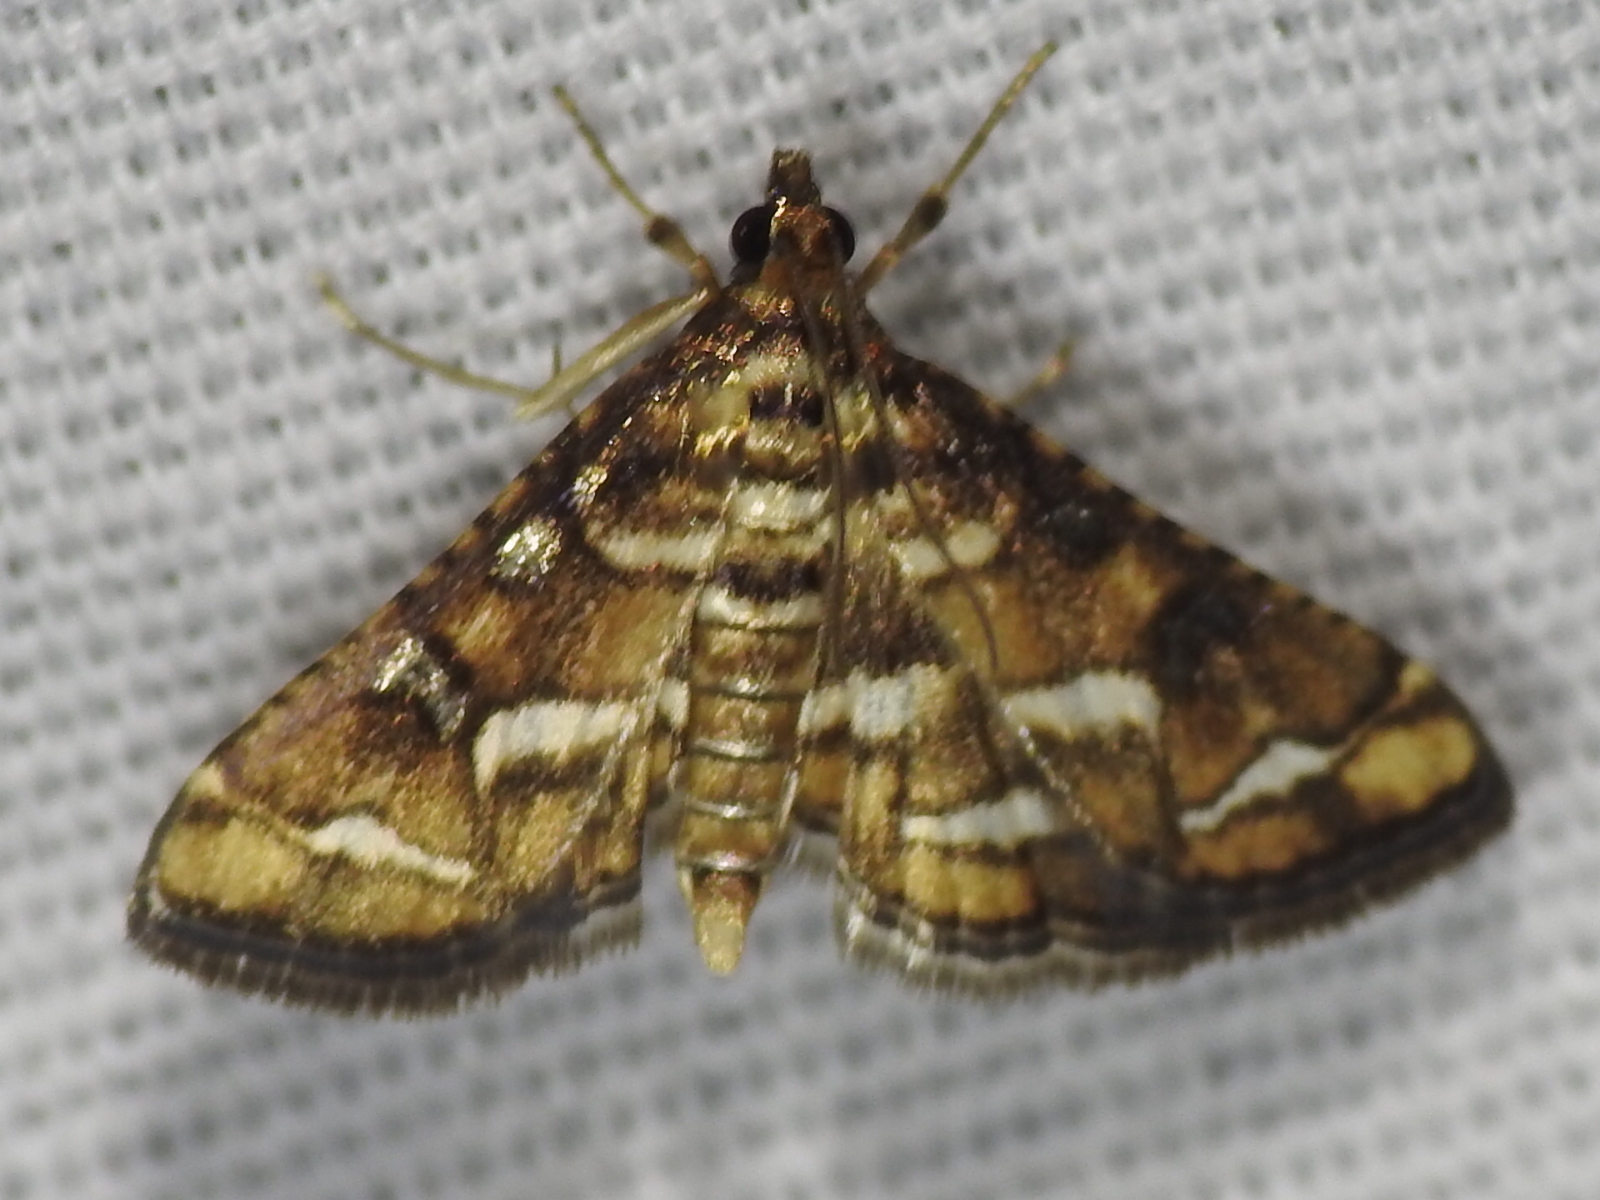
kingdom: Animalia
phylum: Arthropoda
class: Insecta
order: Lepidoptera
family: Crambidae
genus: Hileithia
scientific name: Hileithia magualis
